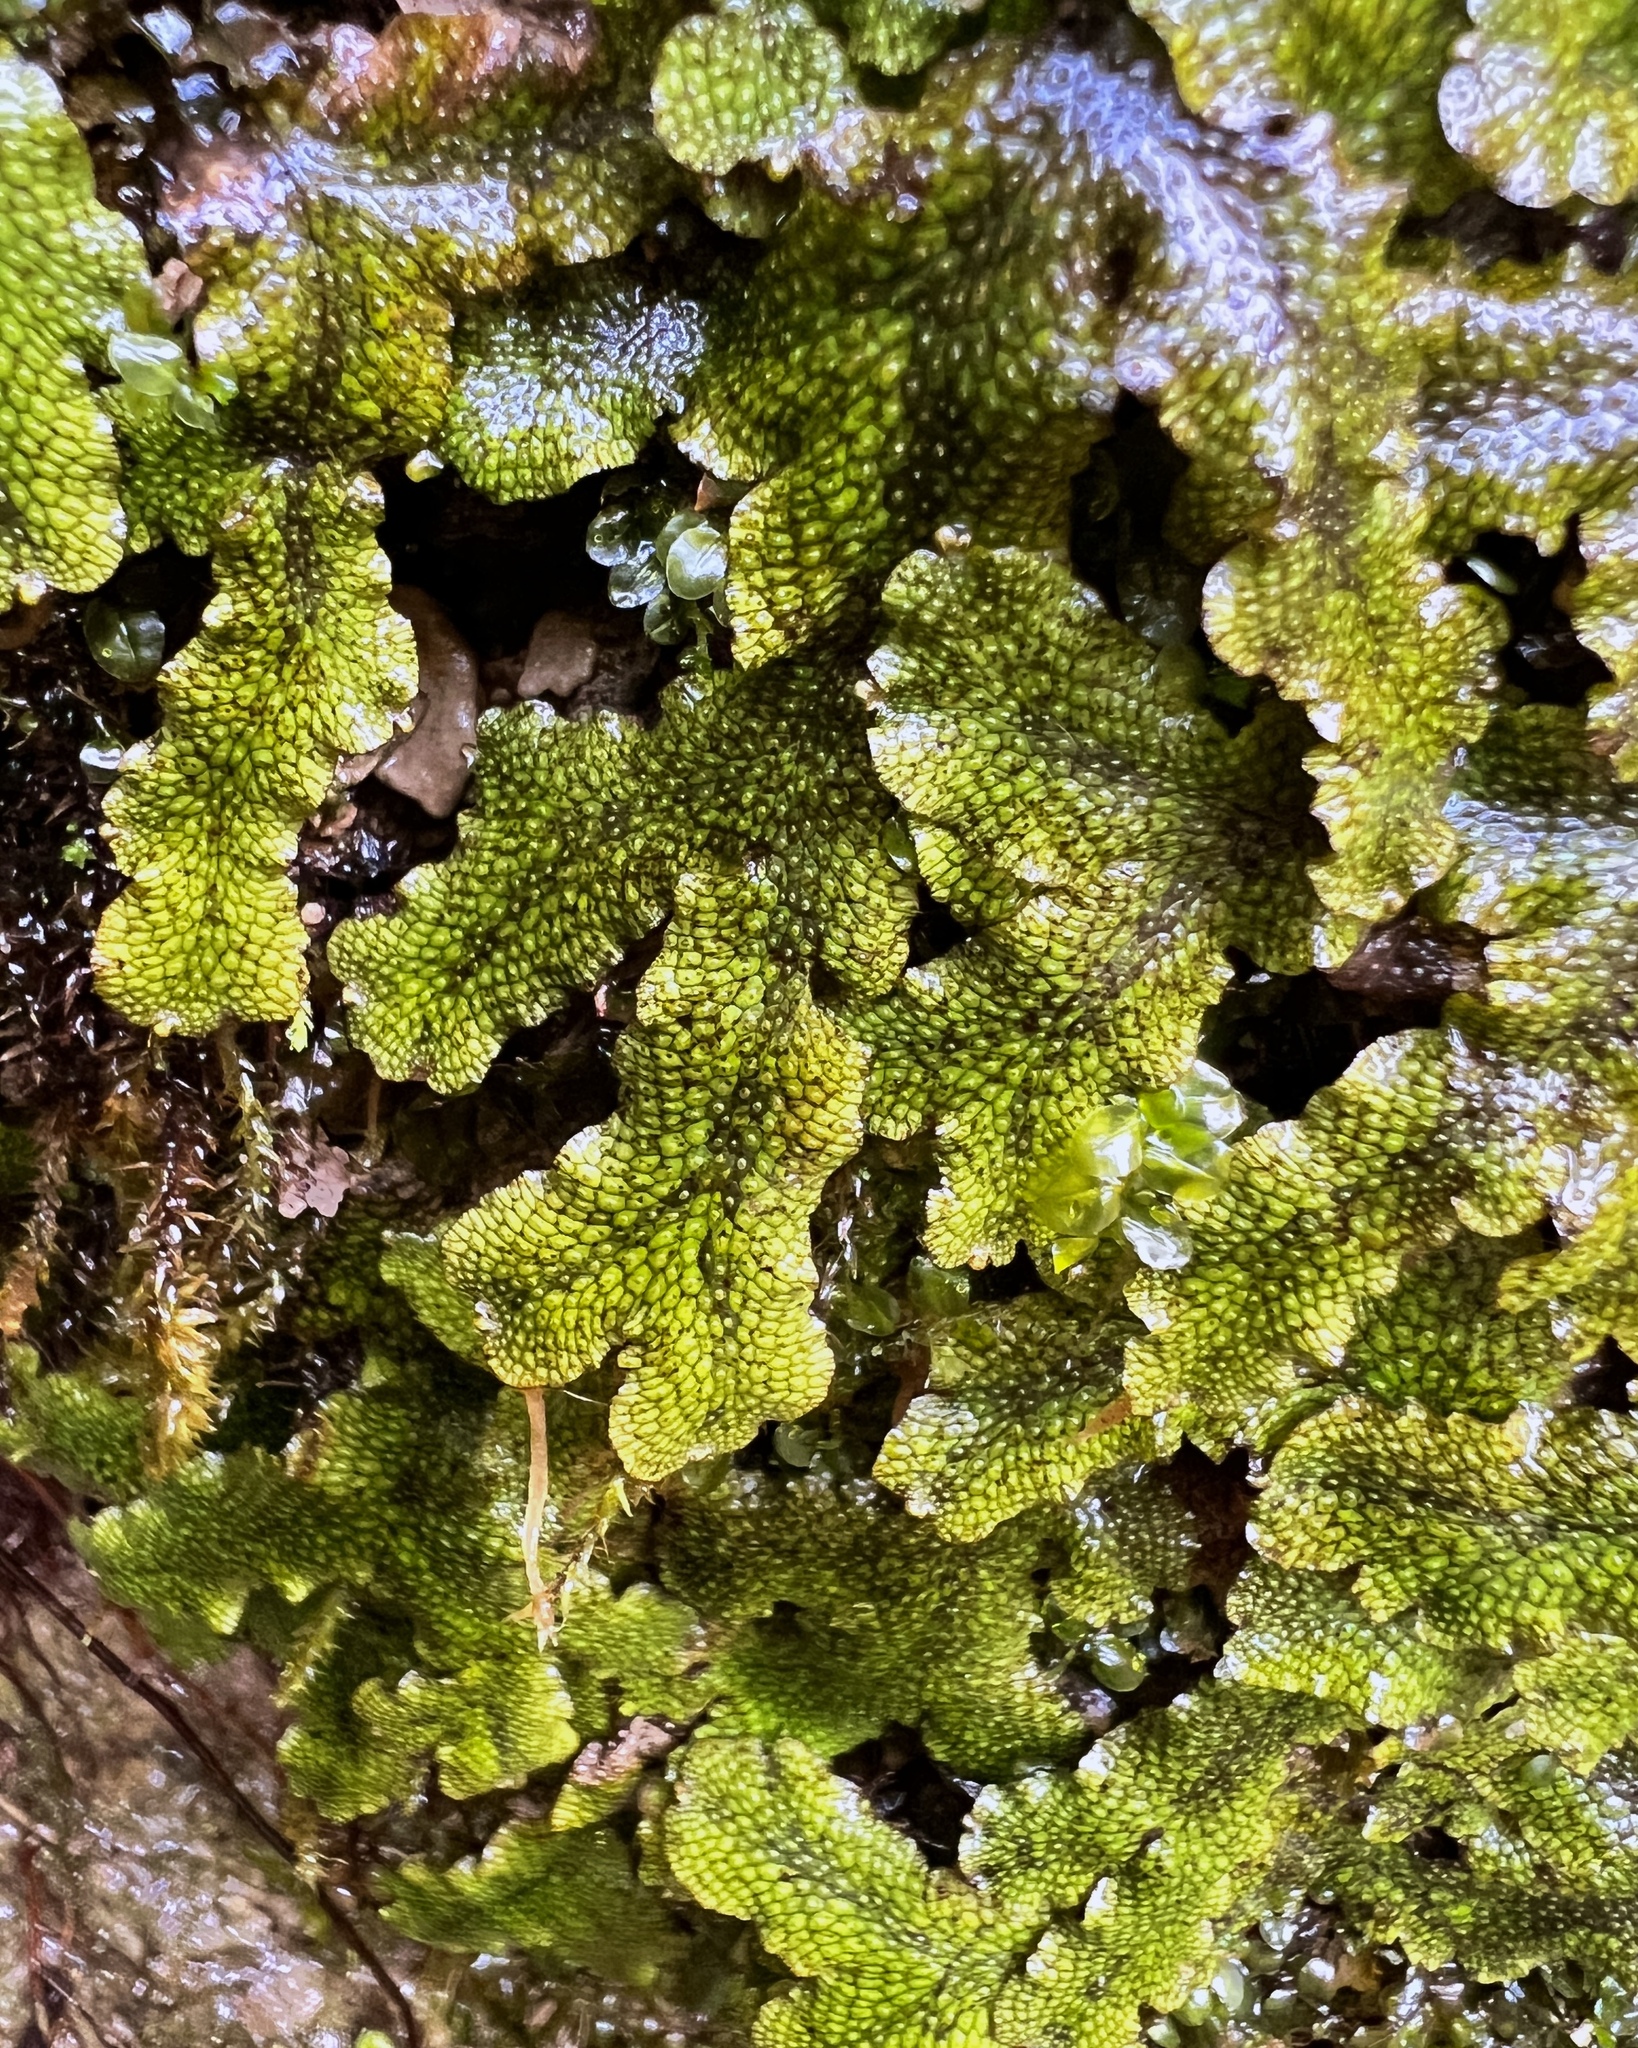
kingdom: Plantae
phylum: Marchantiophyta
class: Marchantiopsida
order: Marchantiales
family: Conocephalaceae
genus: Conocephalum
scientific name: Conocephalum salebrosum
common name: Cat-tongue liverwort
